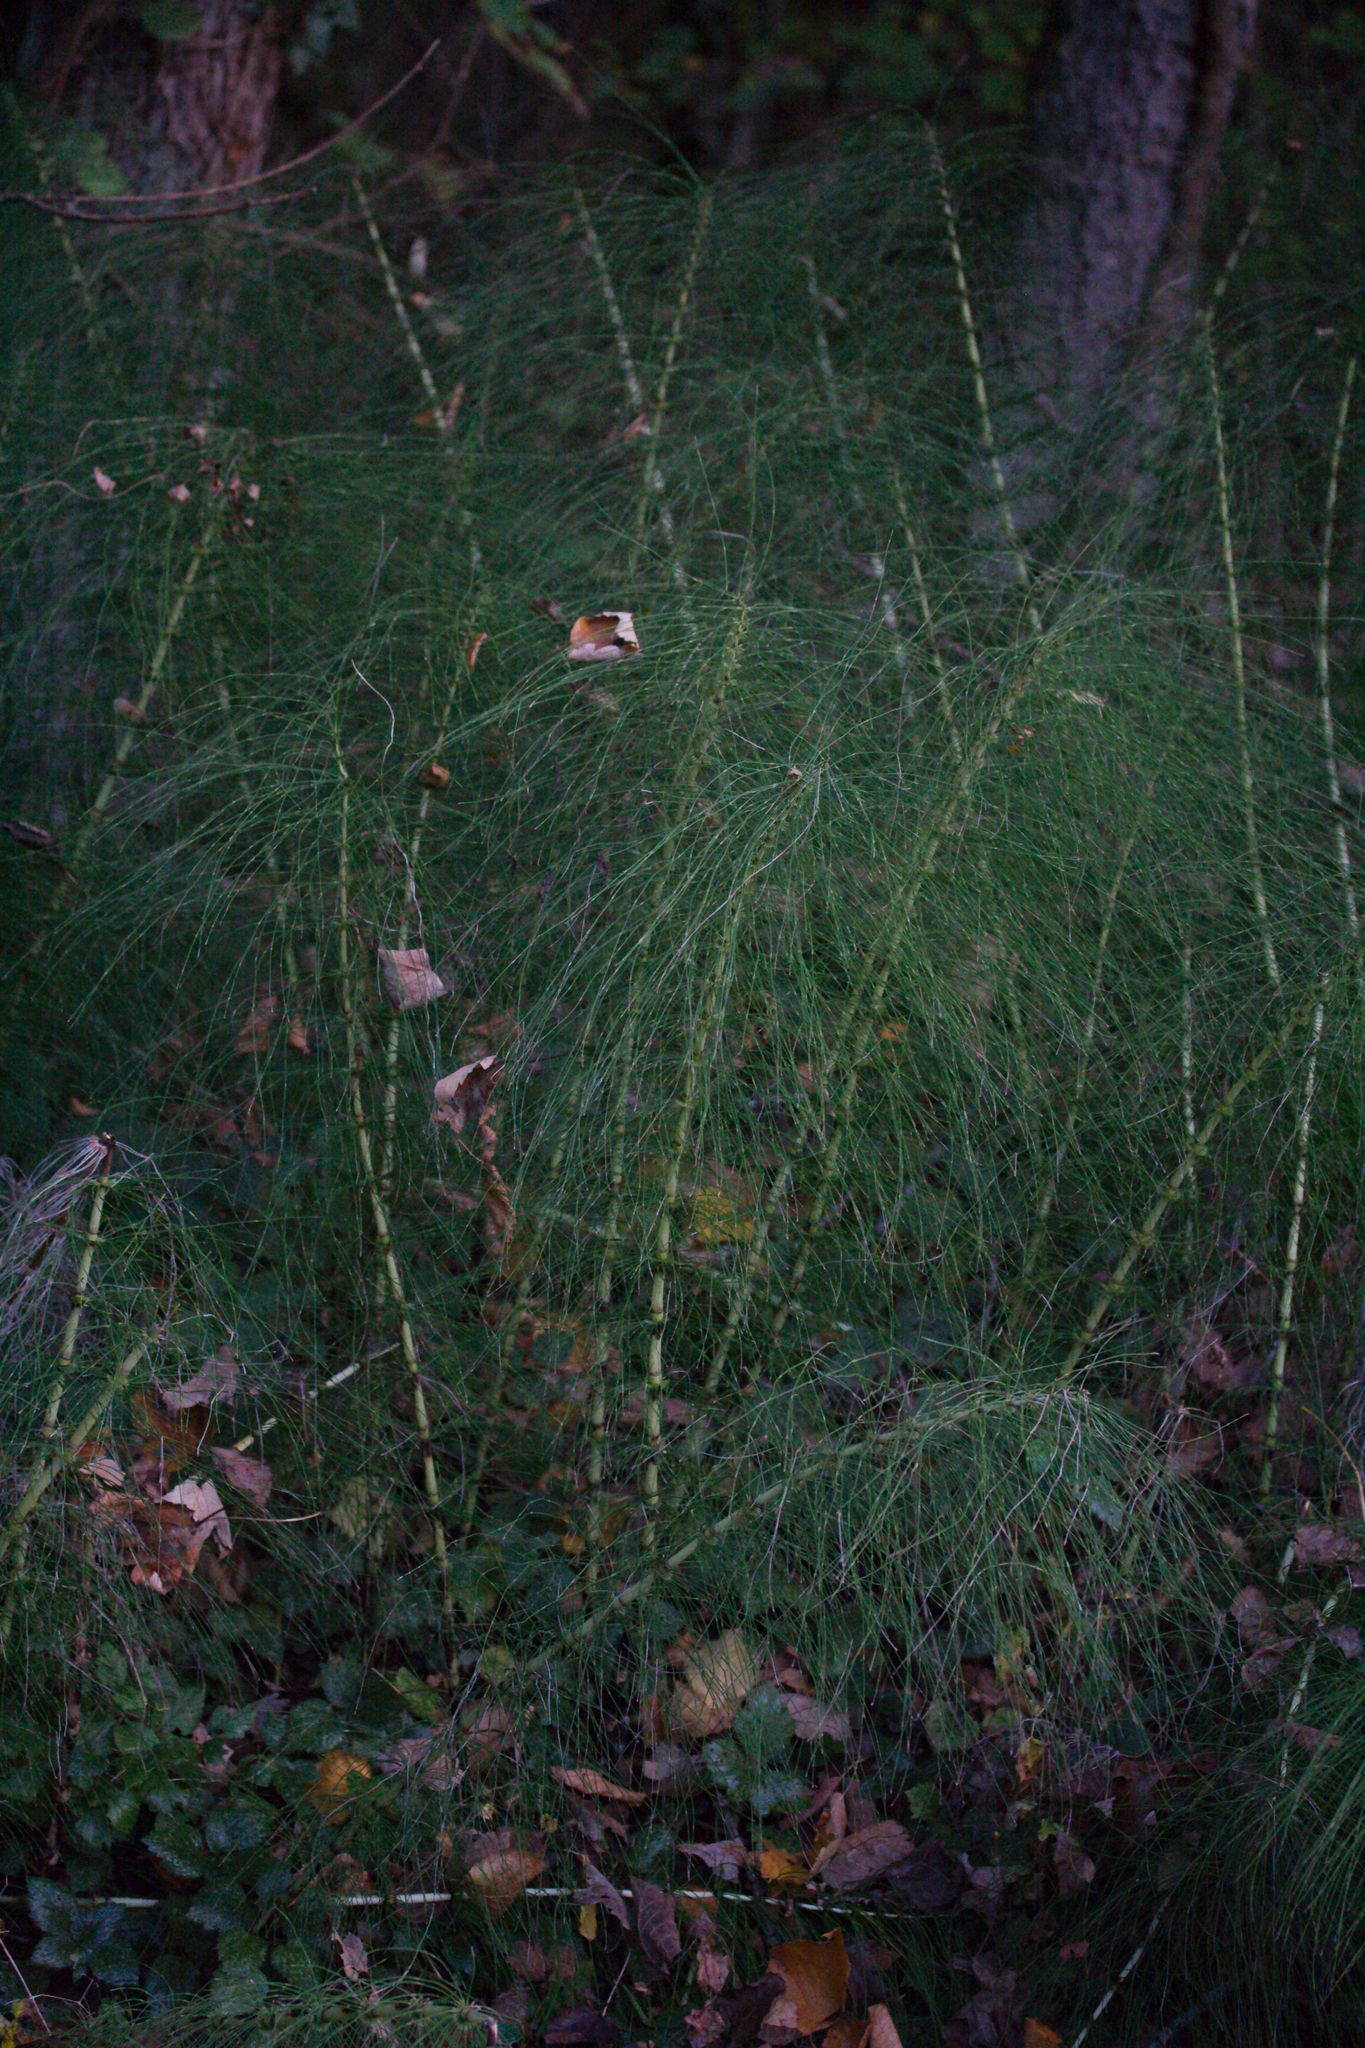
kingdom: Plantae
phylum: Tracheophyta
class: Polypodiopsida
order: Equisetales
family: Equisetaceae
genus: Equisetum
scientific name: Equisetum telmateia
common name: Great horsetail
